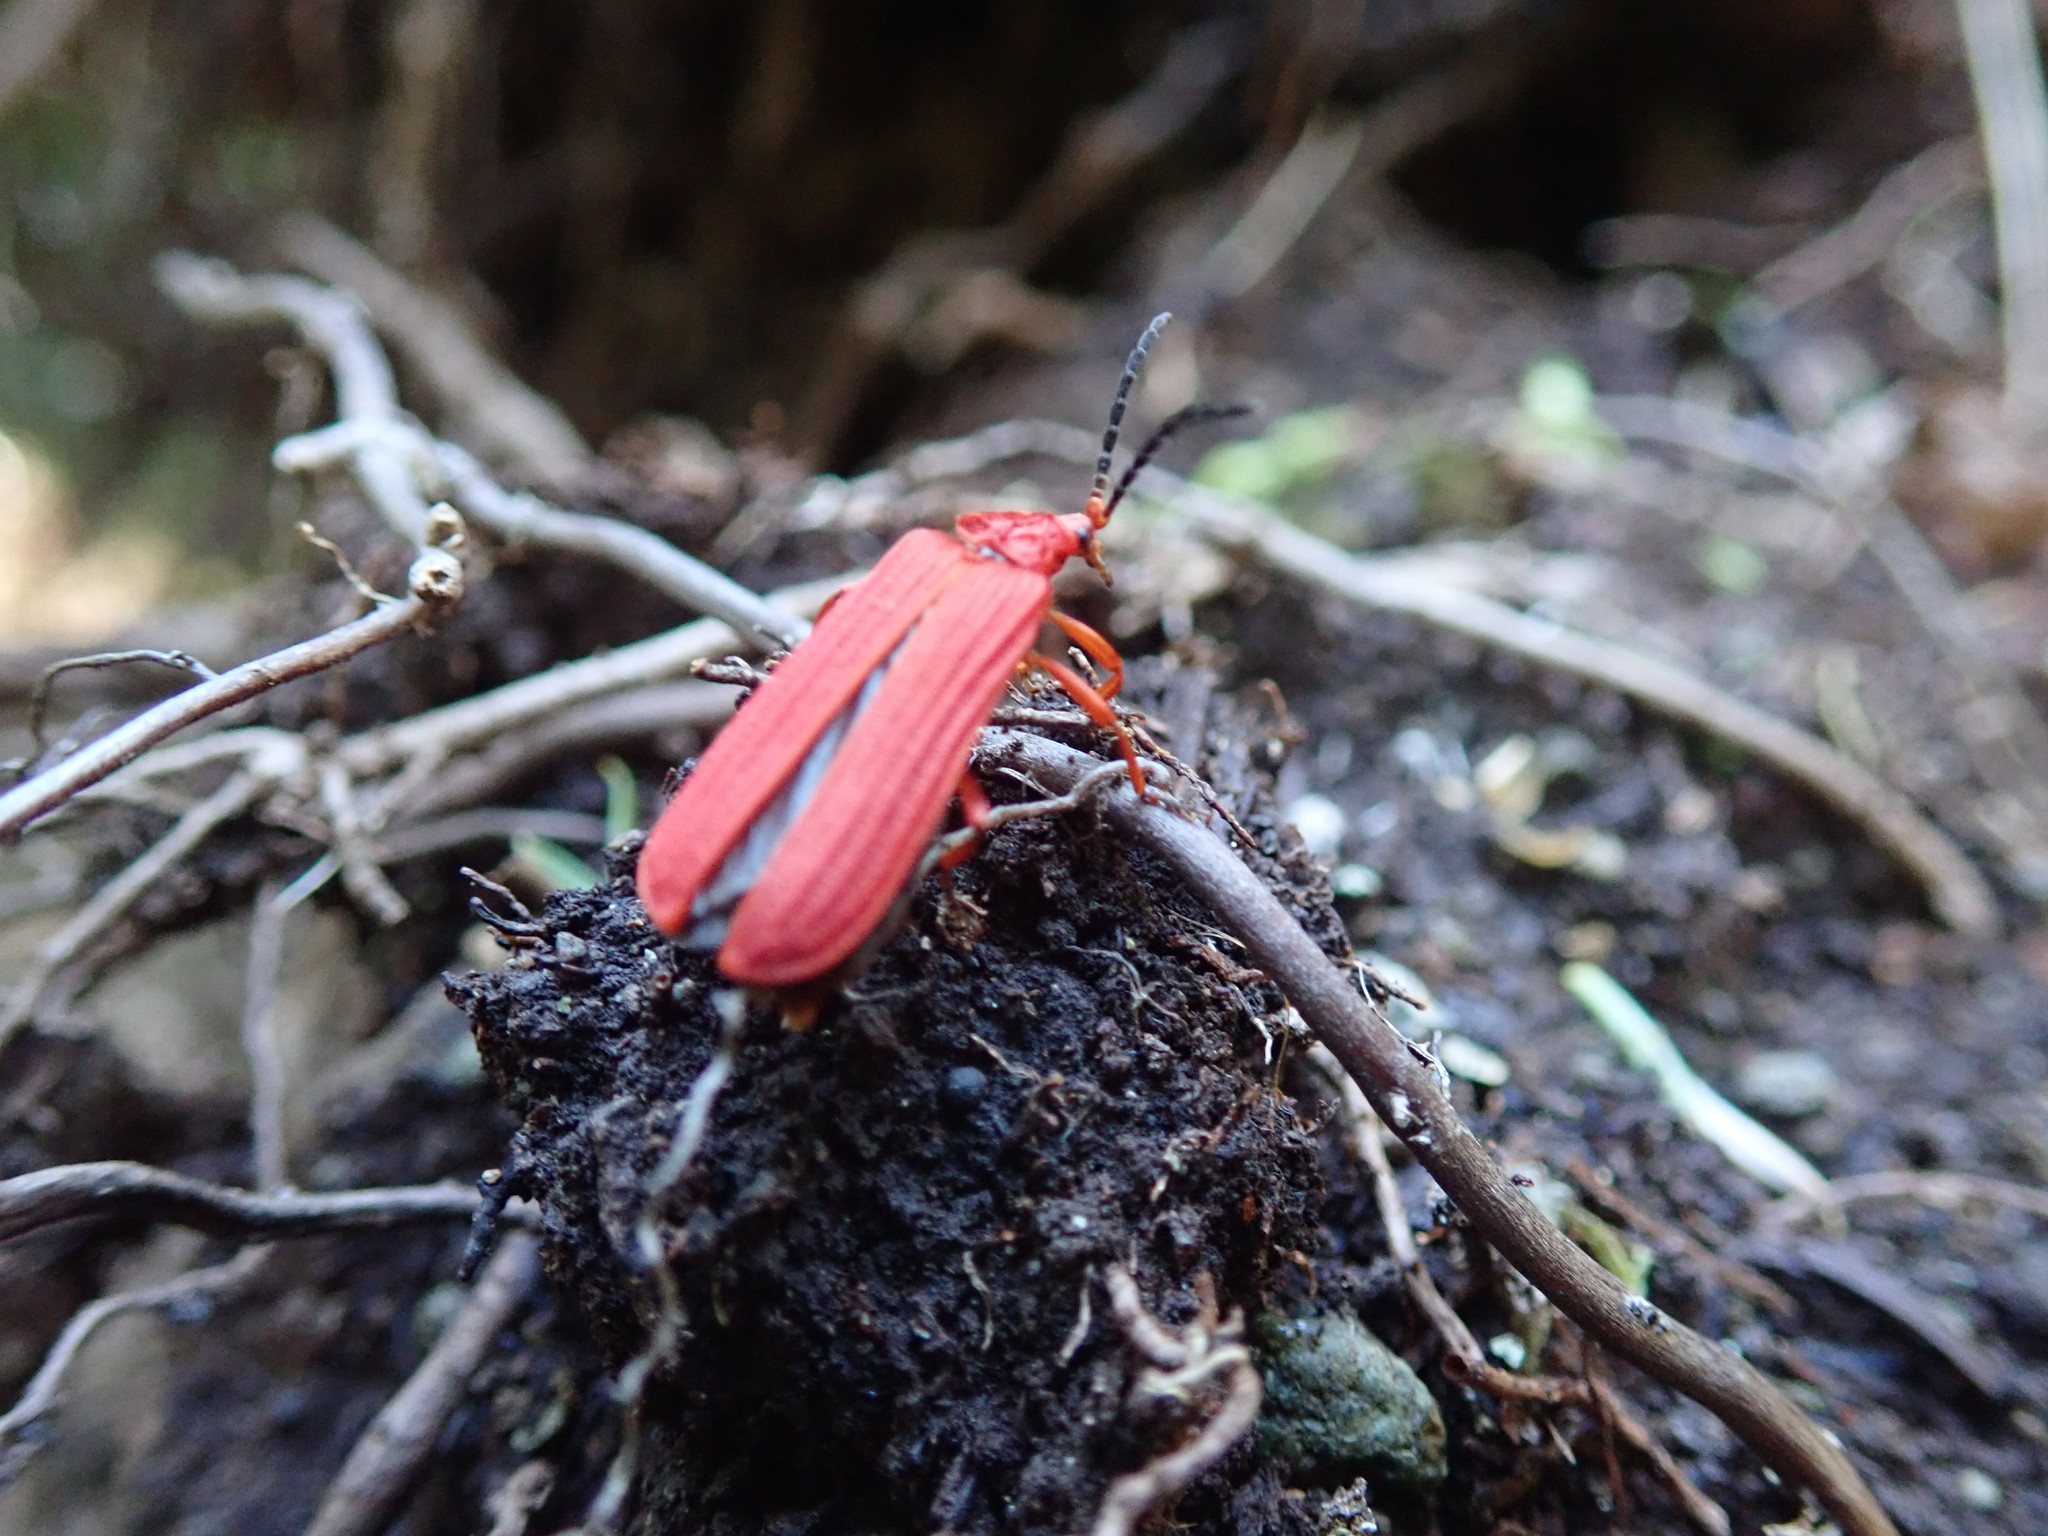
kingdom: Animalia
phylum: Arthropoda
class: Insecta
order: Coleoptera
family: Lycidae
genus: Punicealis
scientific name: Punicealis hamata
